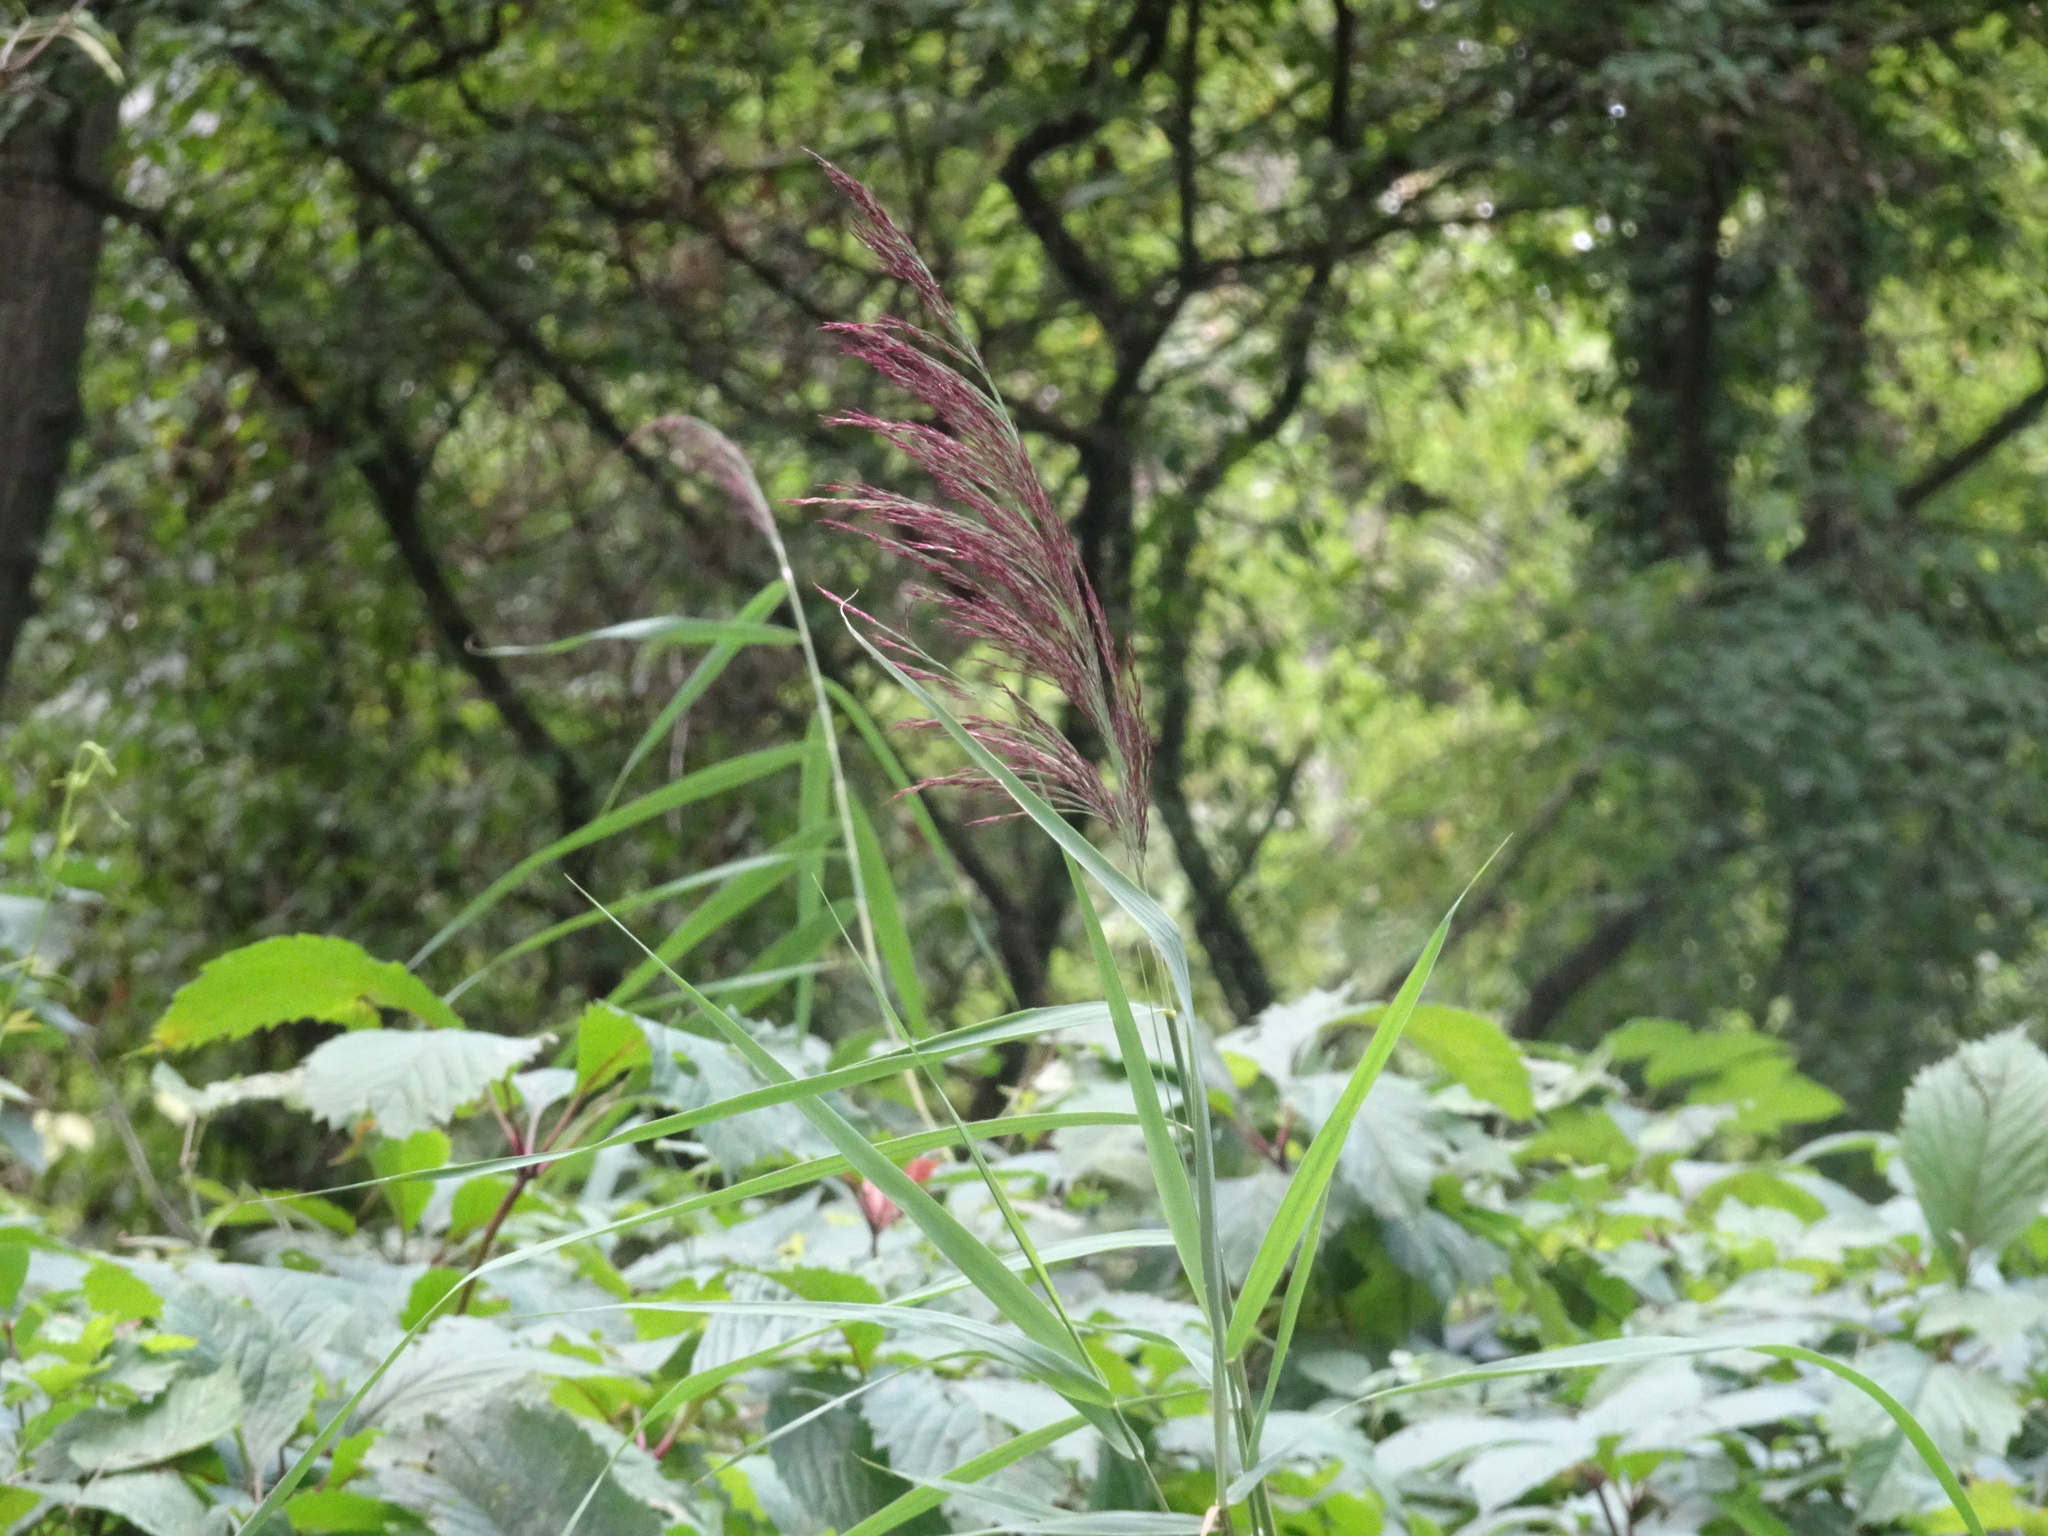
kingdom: Plantae
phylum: Tracheophyta
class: Liliopsida
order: Poales
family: Poaceae
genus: Phragmites
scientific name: Phragmites australis
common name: Common reed
